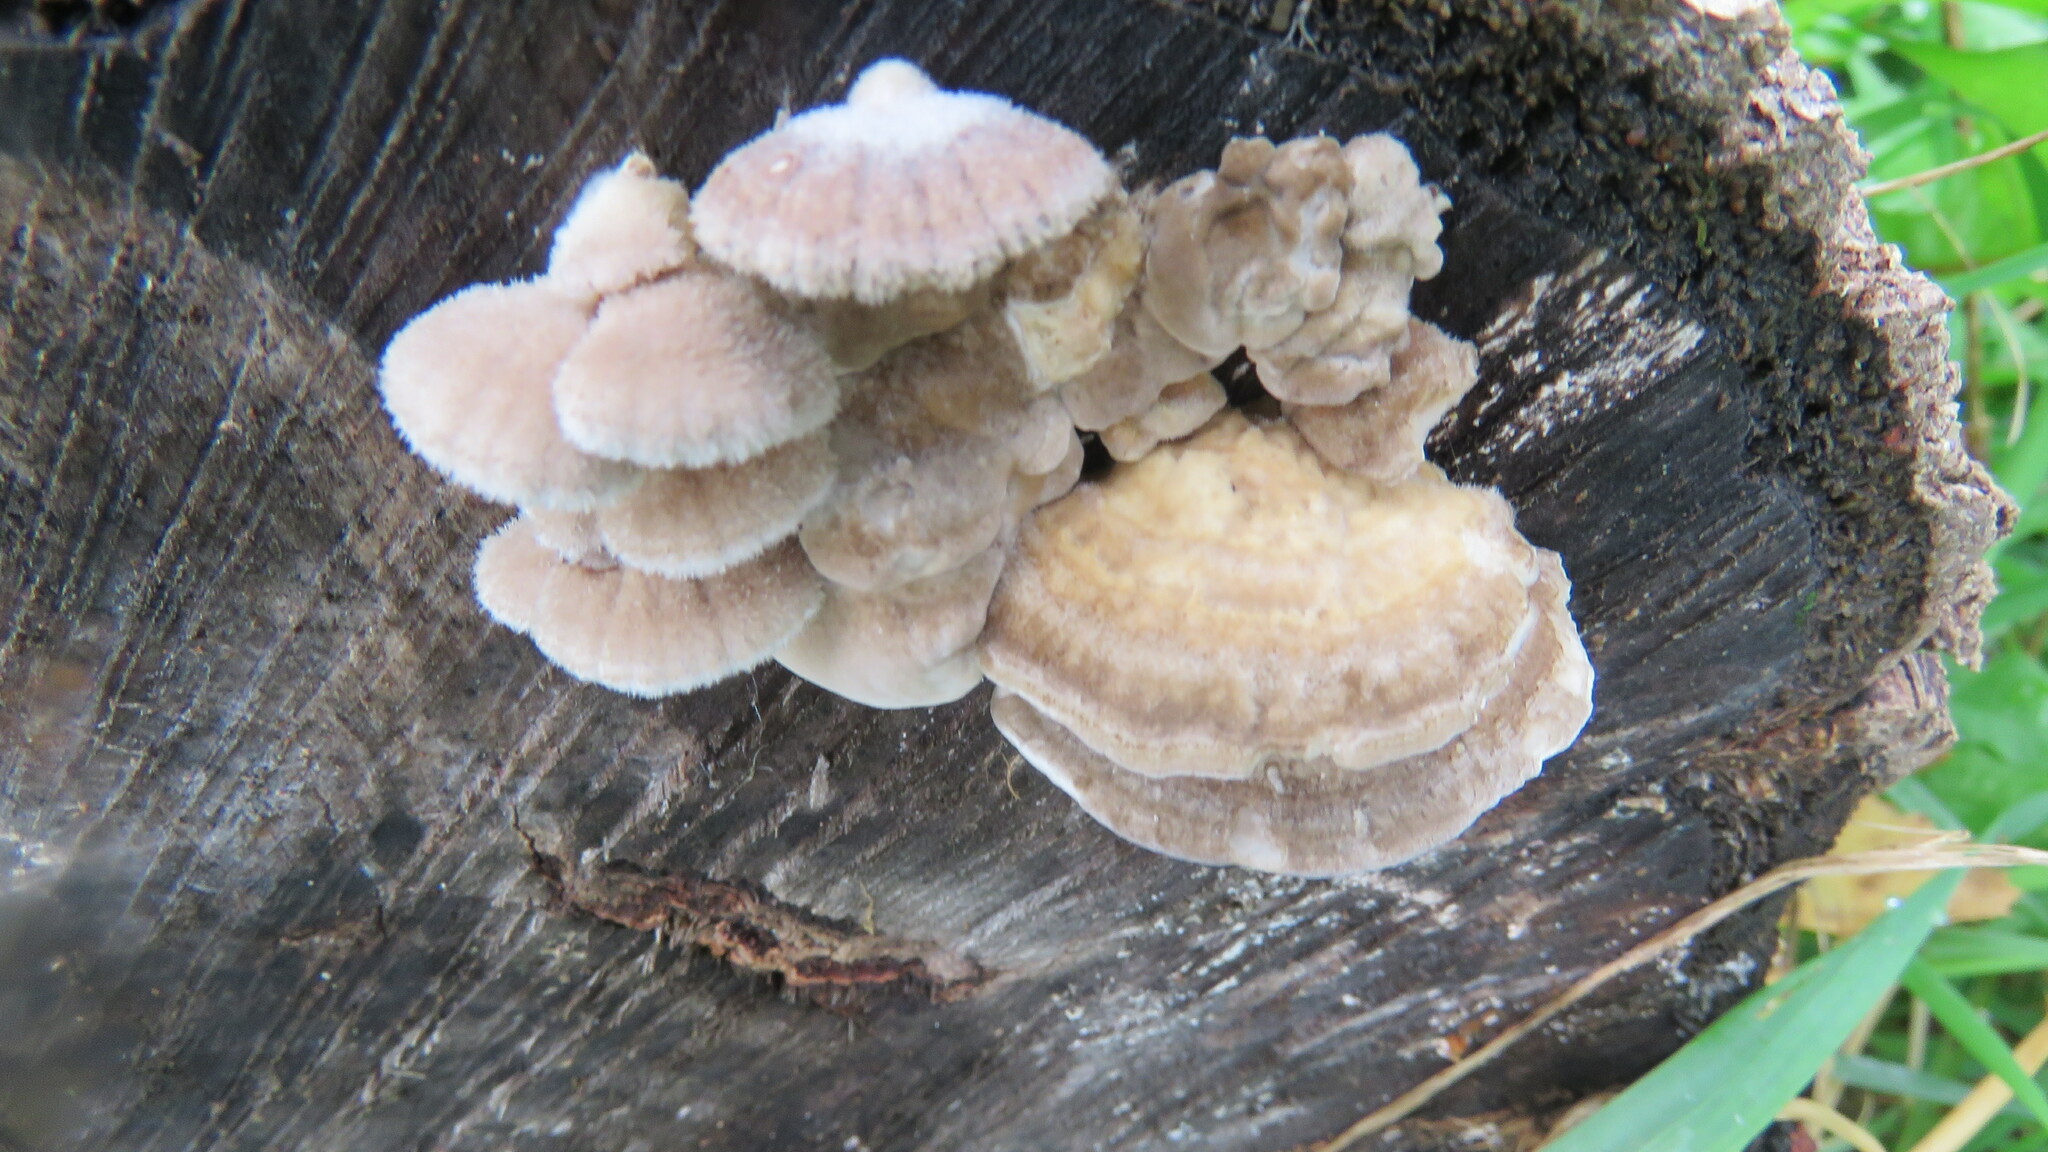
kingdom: Fungi
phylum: Basidiomycota
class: Agaricomycetes
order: Agaricales
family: Schizophyllaceae
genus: Schizophyllum
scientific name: Schizophyllum commune
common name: Common porecrust
